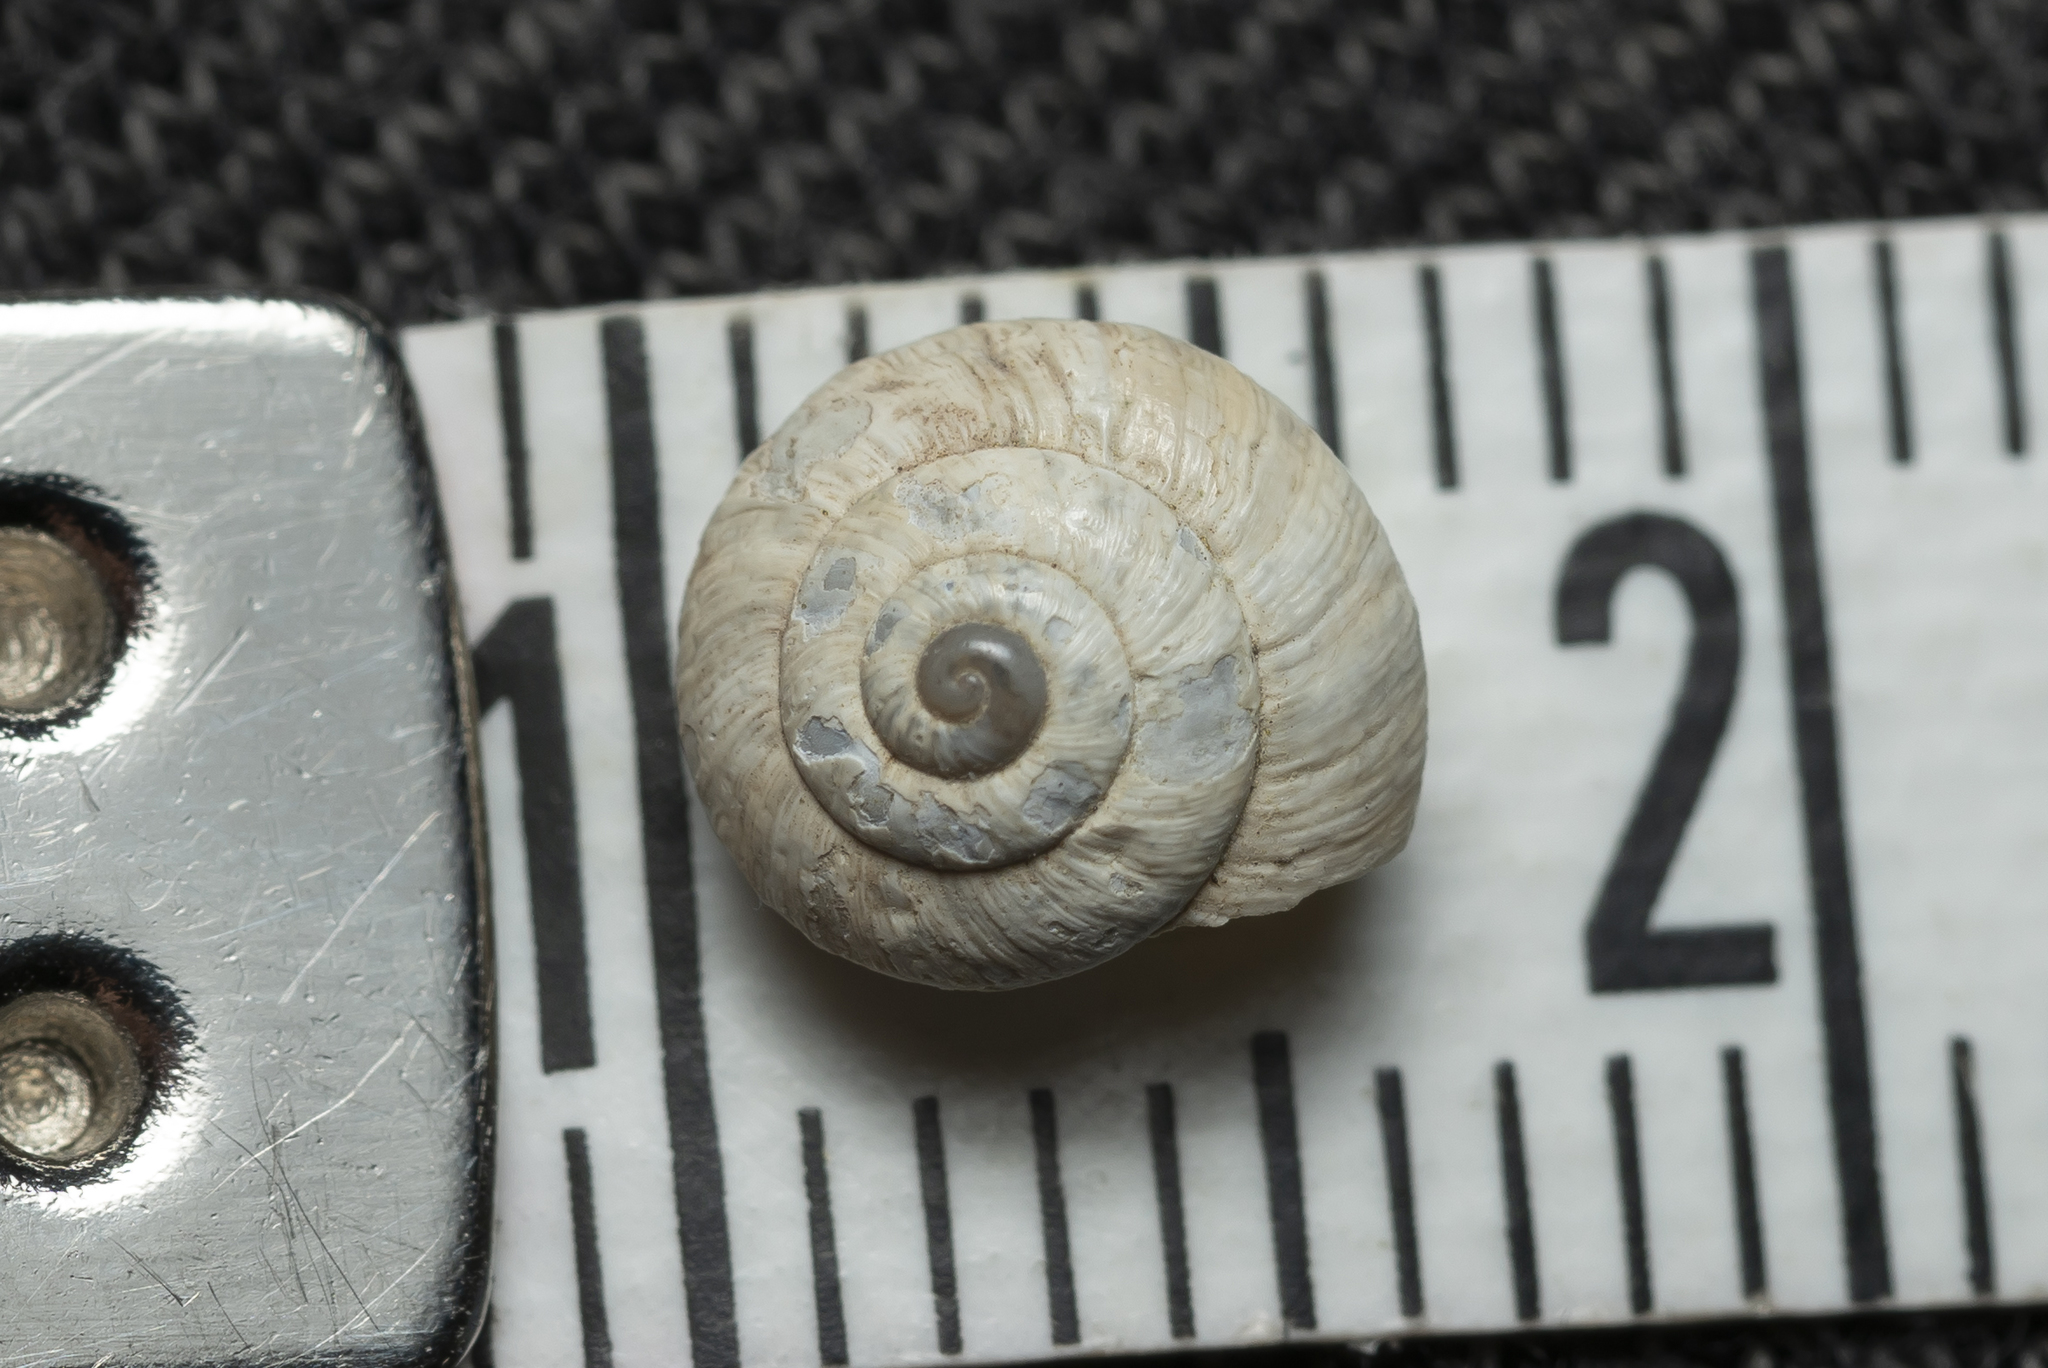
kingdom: Animalia
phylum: Mollusca
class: Gastropoda
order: Stylommatophora
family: Geomitridae
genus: Cernuella
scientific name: Cernuella virgata
